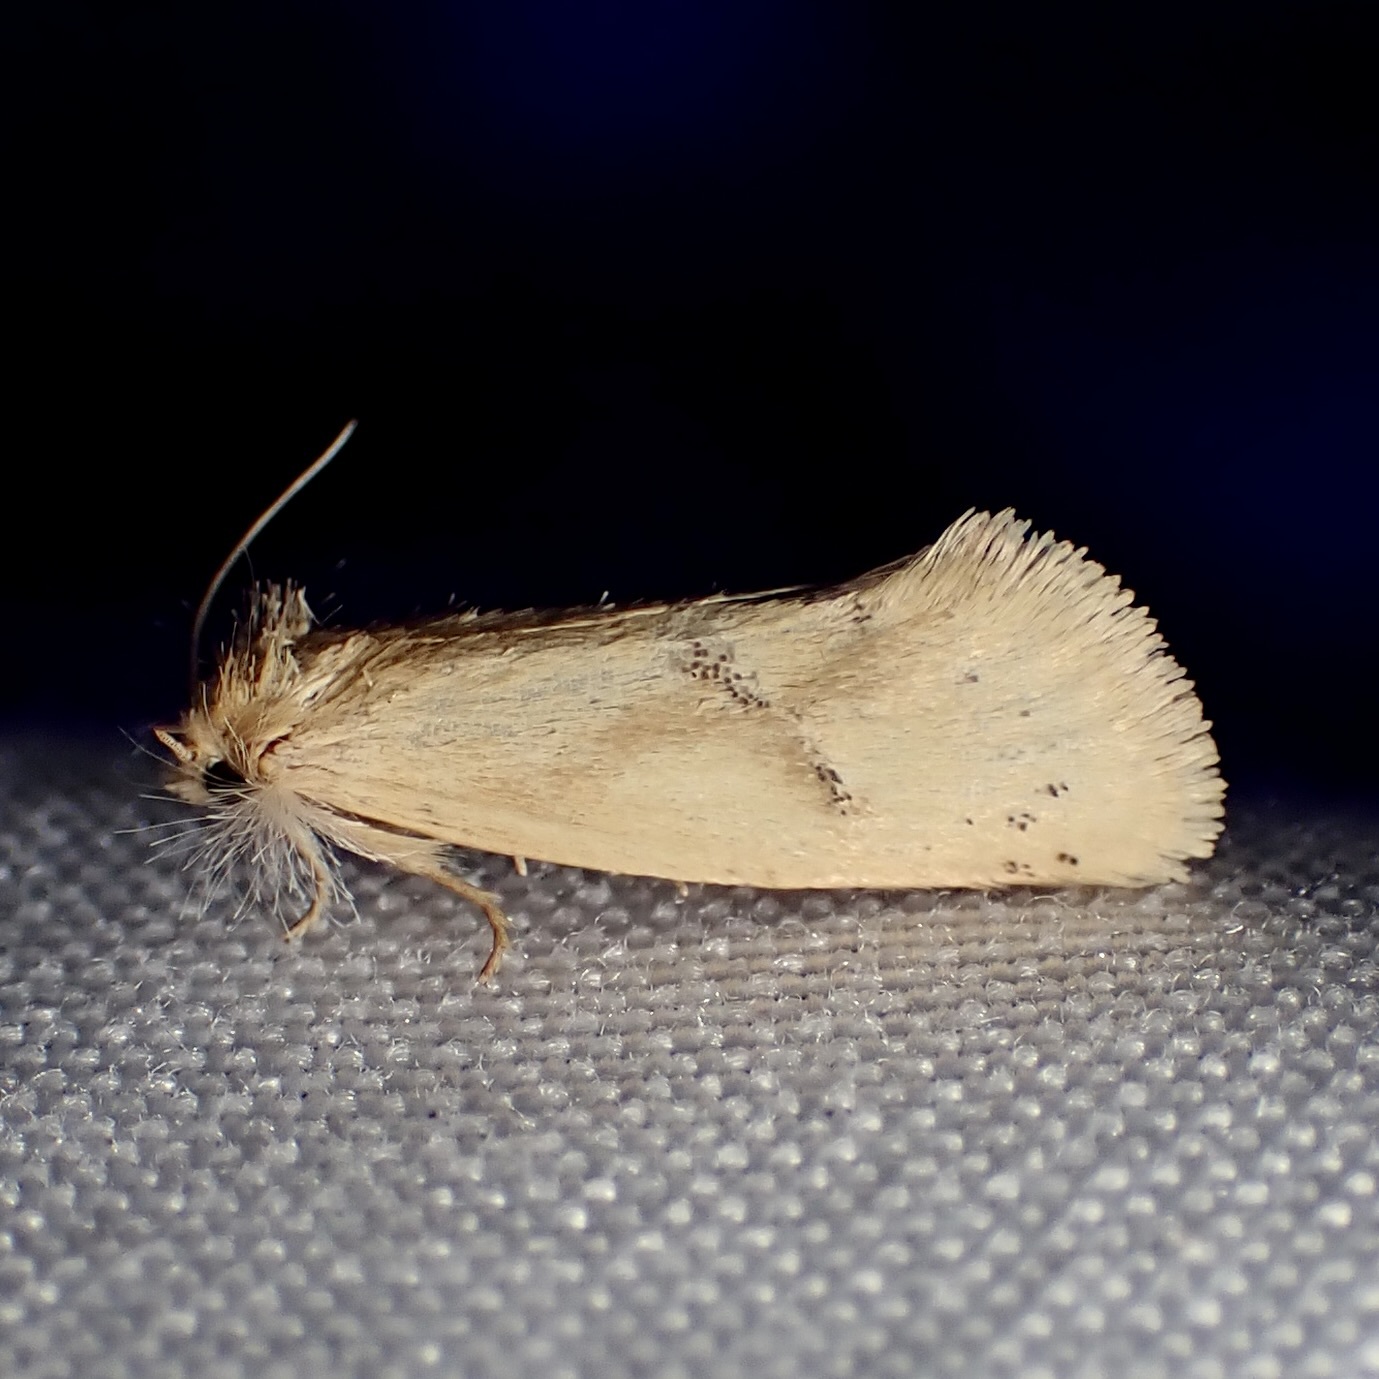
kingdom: Animalia
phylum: Arthropoda
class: Insecta
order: Lepidoptera
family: Tineidae
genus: Acrolophus
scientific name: Acrolophus laticapitana
